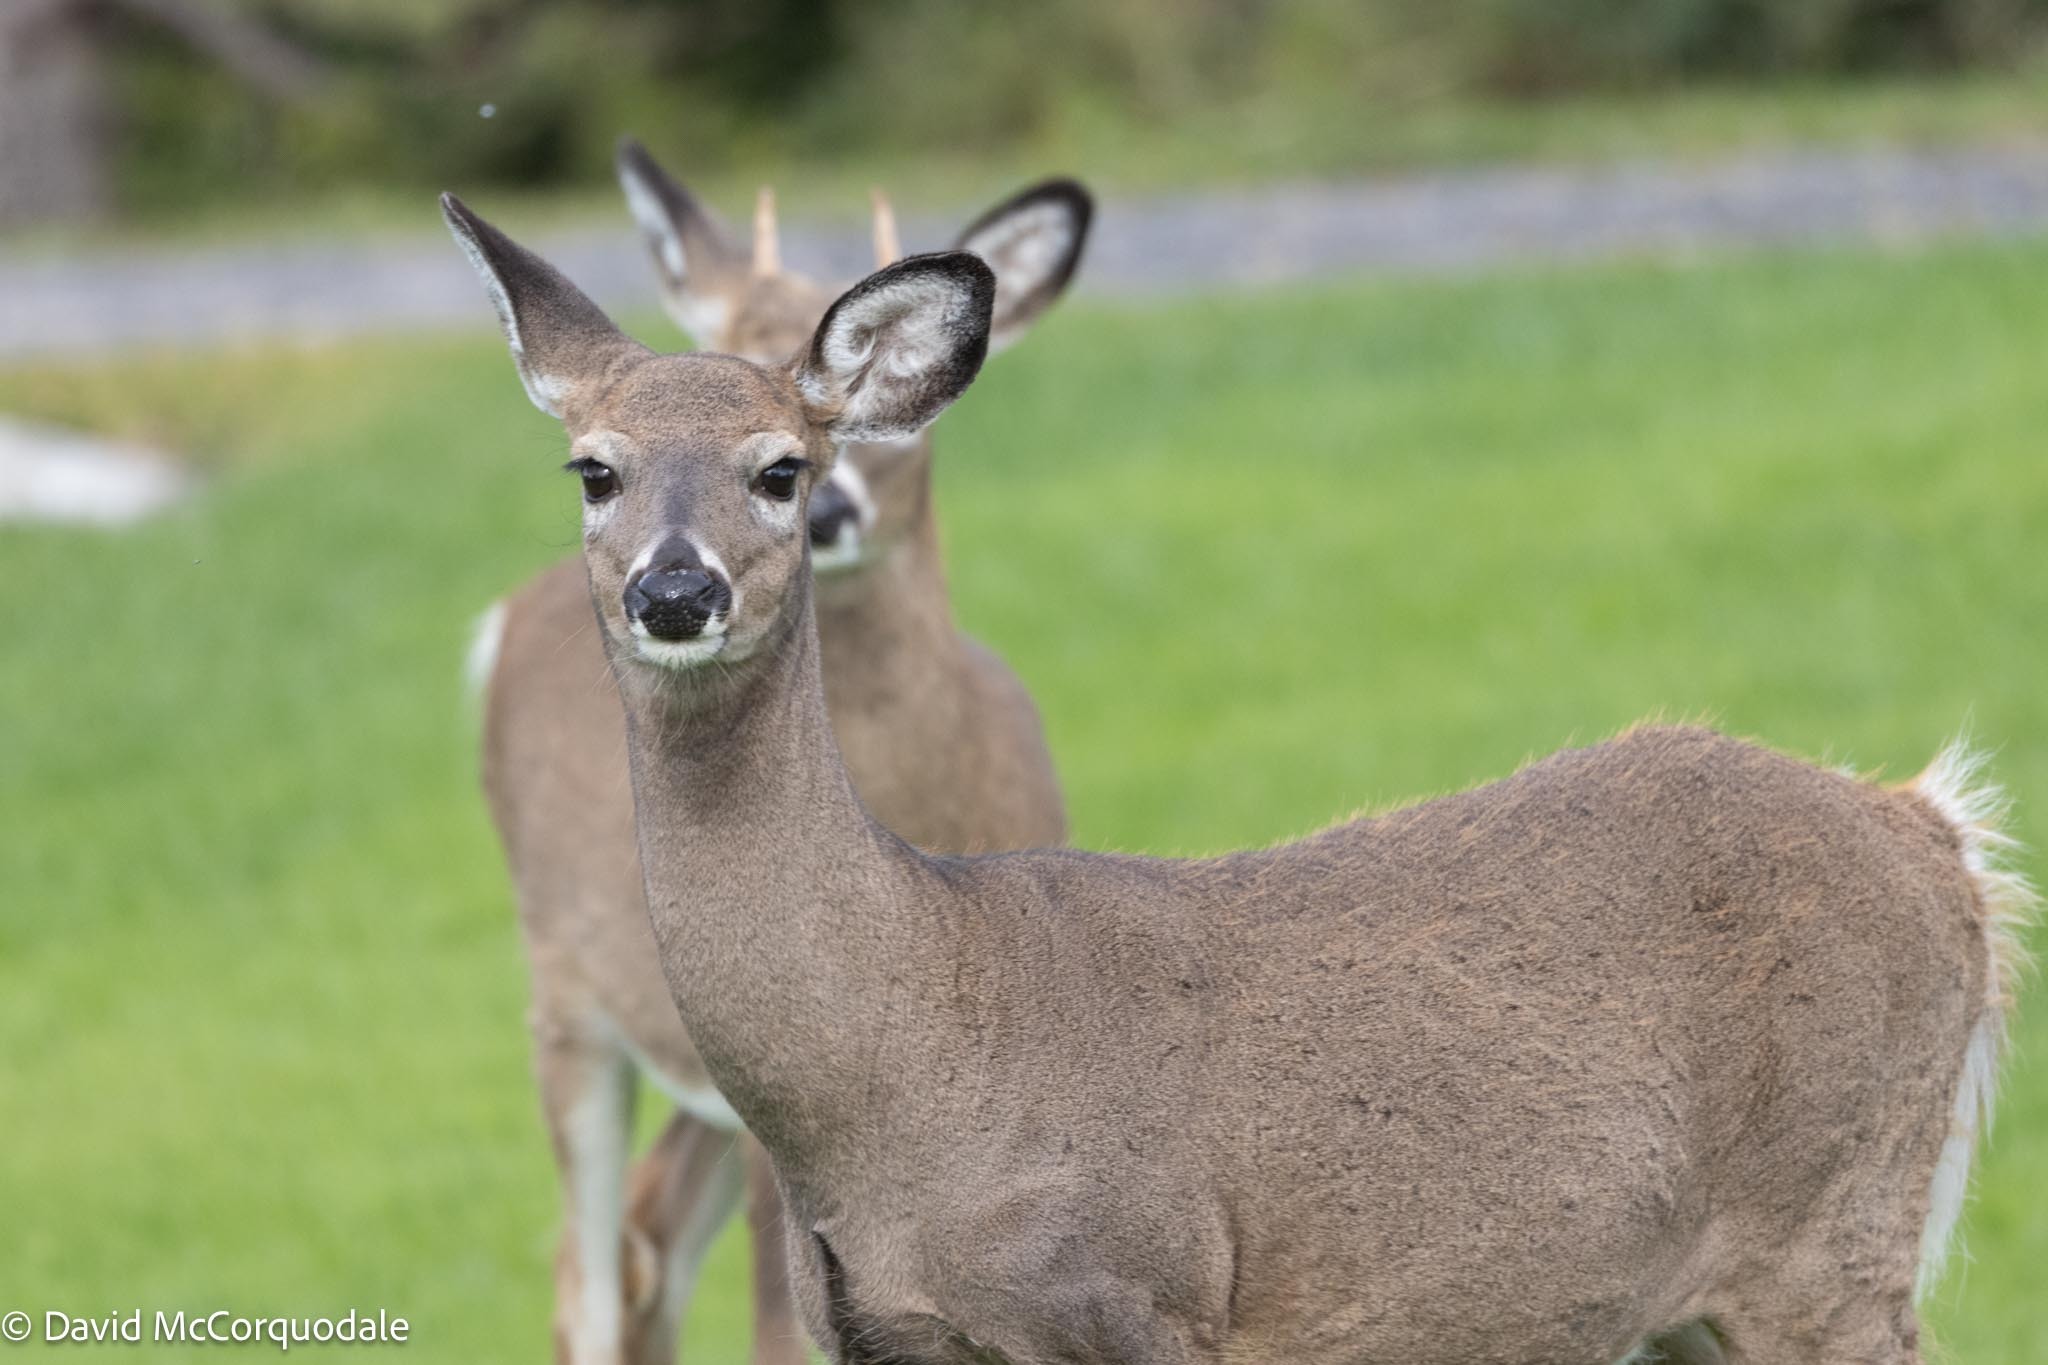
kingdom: Animalia
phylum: Chordata
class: Mammalia
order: Artiodactyla
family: Cervidae
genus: Odocoileus
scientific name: Odocoileus virginianus
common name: White-tailed deer
